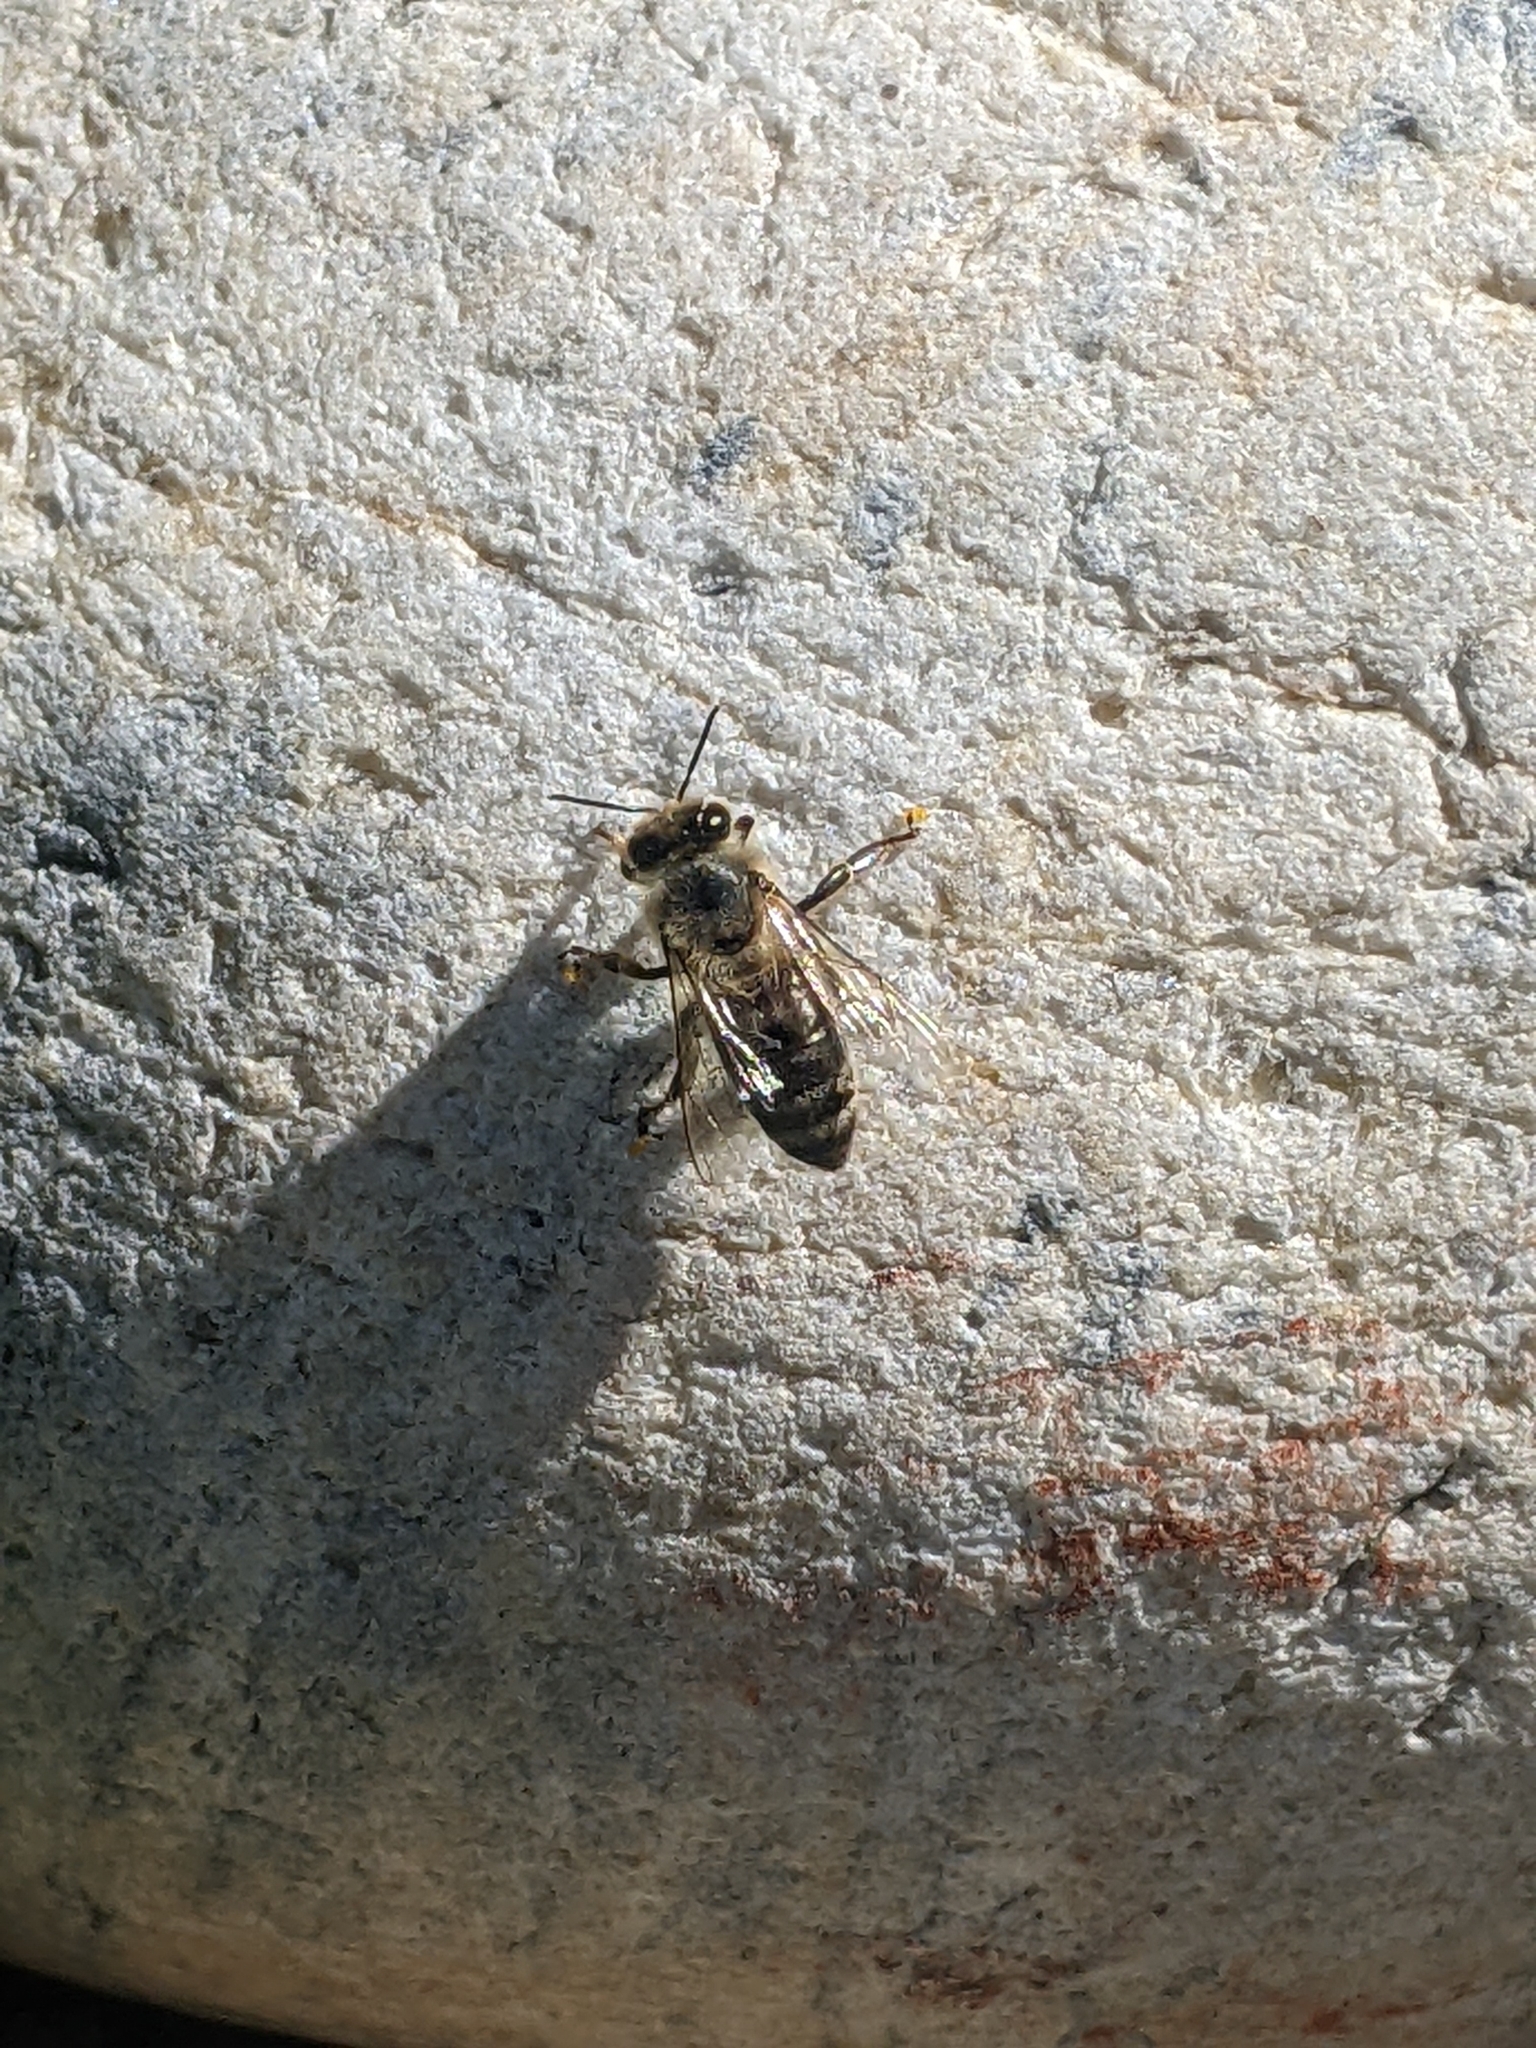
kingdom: Animalia
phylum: Arthropoda
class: Insecta
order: Hymenoptera
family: Apidae
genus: Apis
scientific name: Apis mellifera
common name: Honey bee
